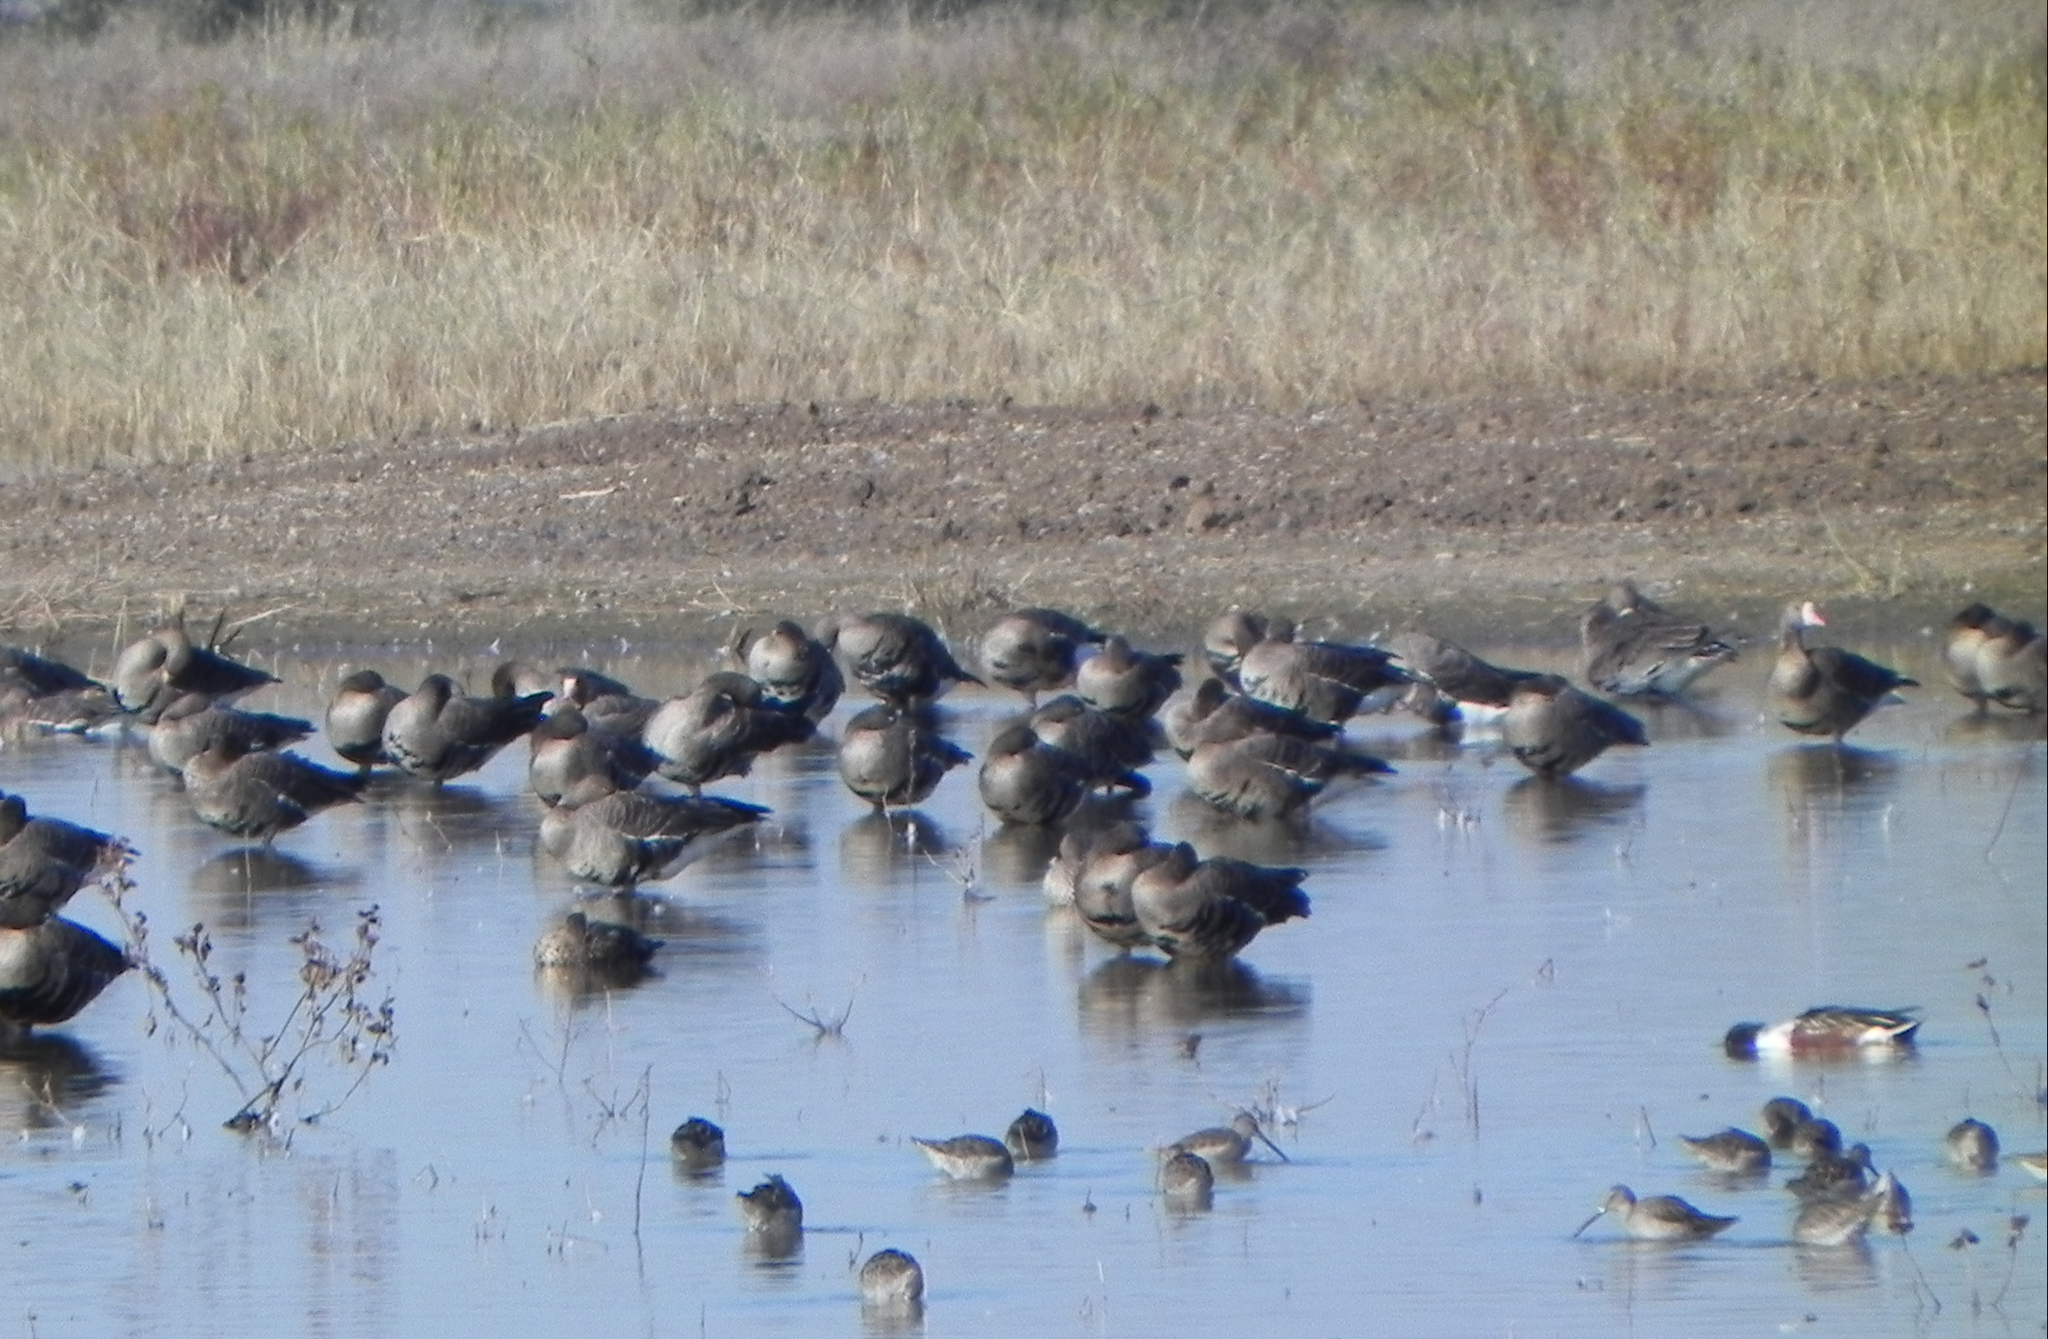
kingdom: Animalia
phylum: Chordata
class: Aves
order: Anseriformes
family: Anatidae
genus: Anser
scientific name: Anser albifrons
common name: Greater white-fronted goose
